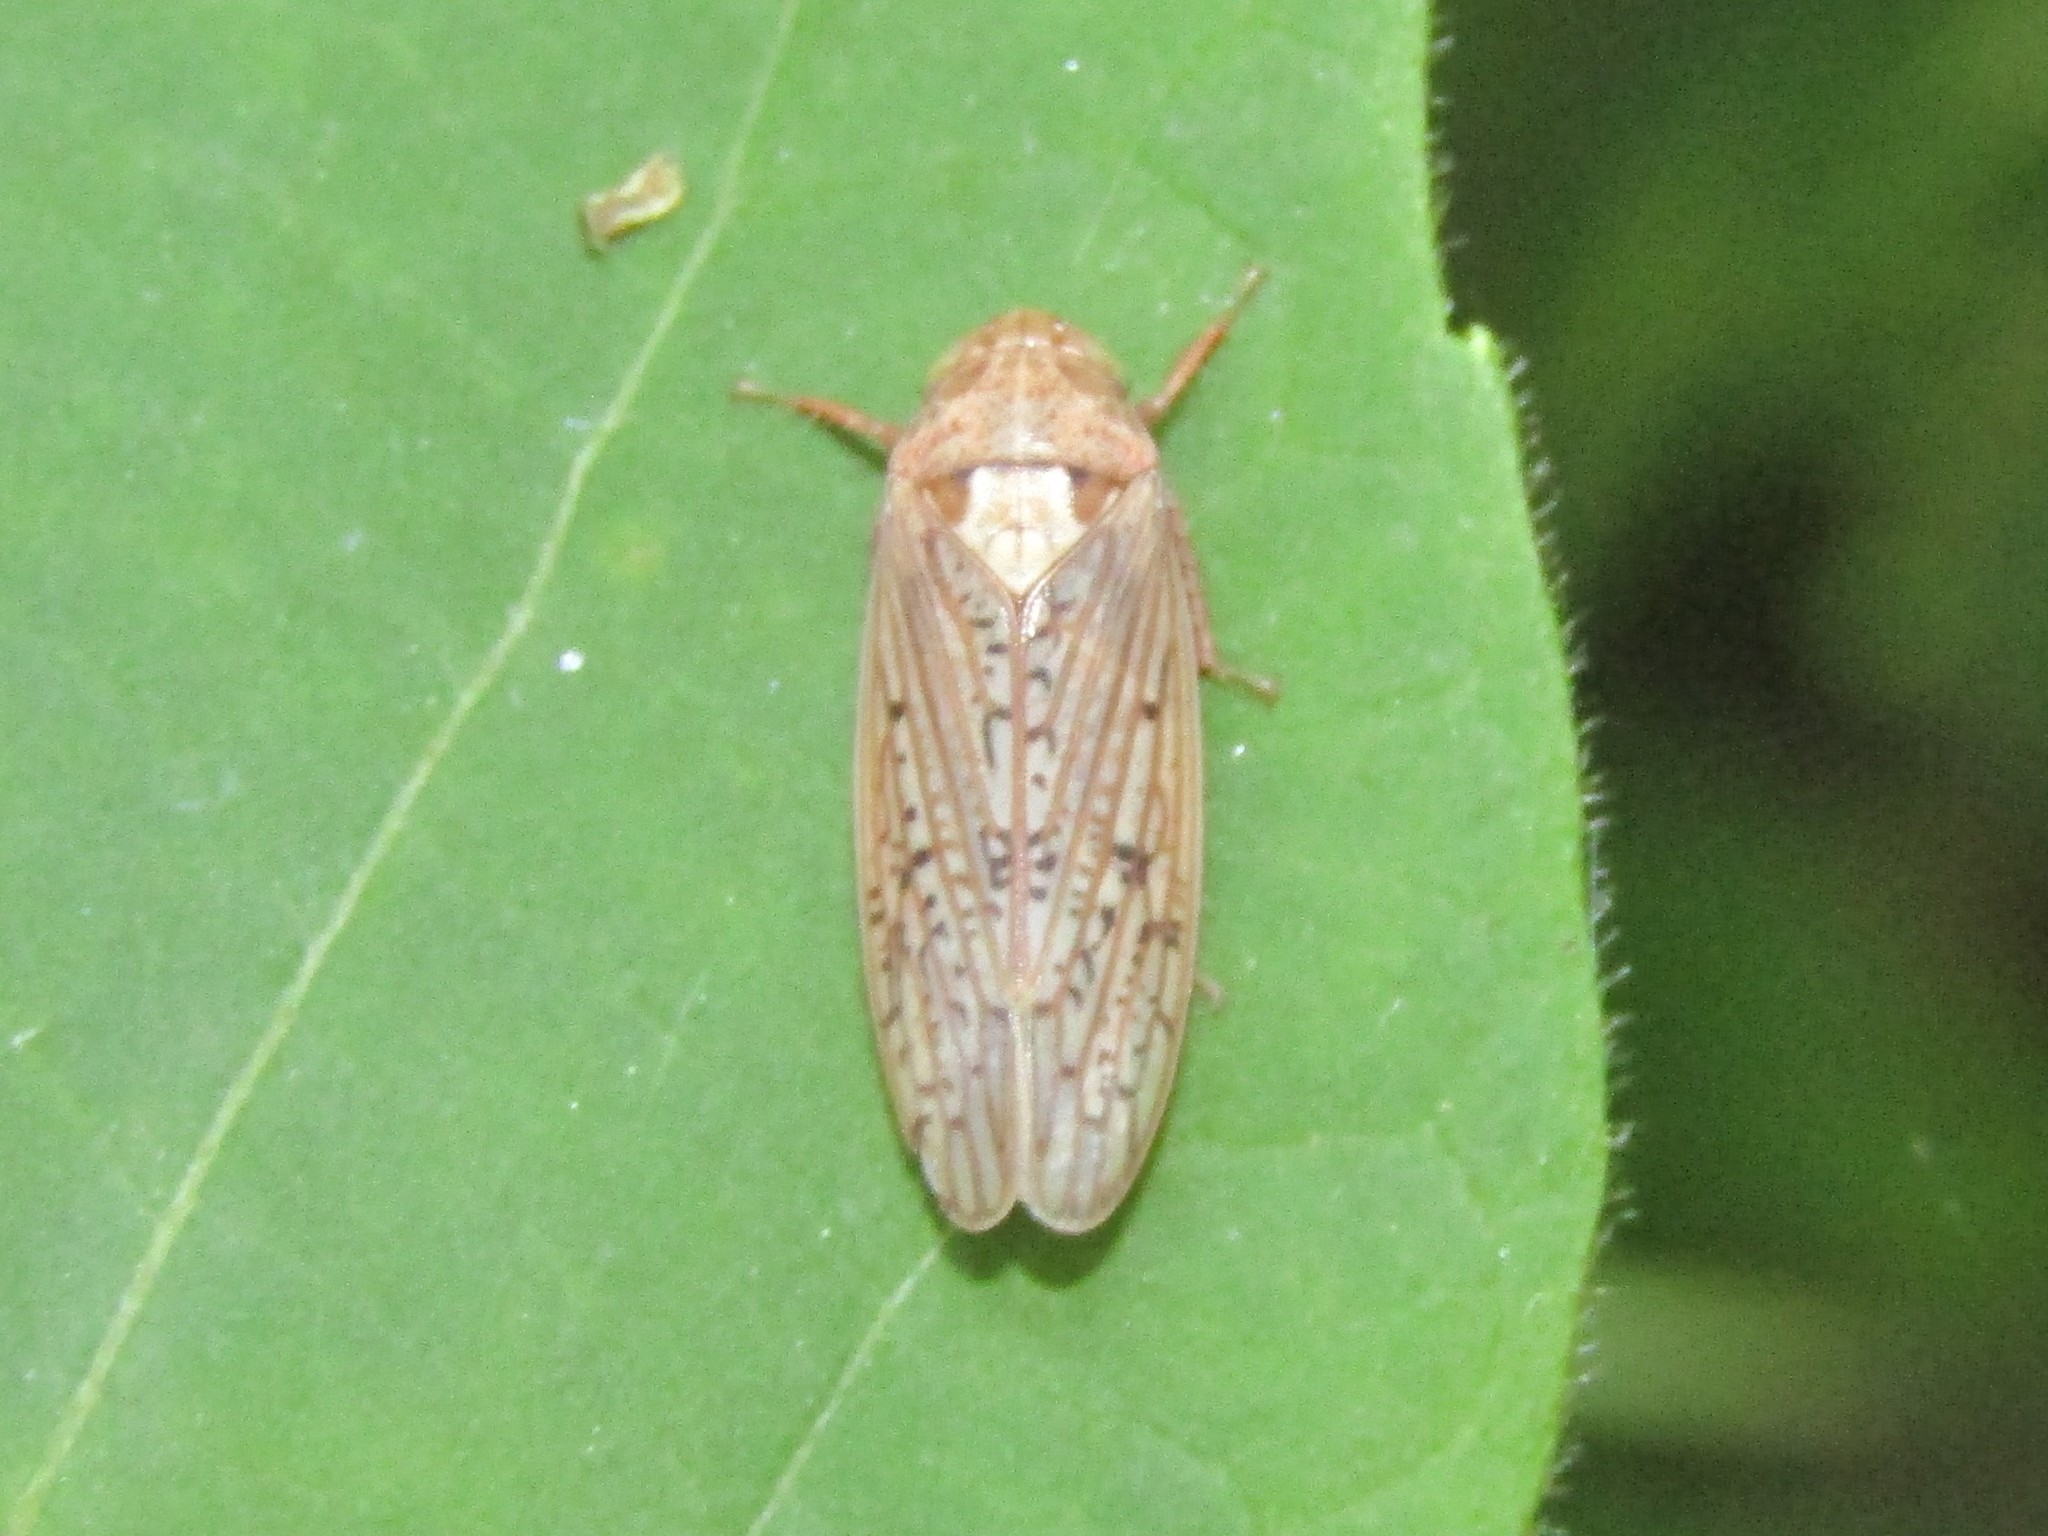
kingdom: Animalia
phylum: Arthropoda
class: Insecta
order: Hemiptera
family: Cicadellidae
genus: Ponana
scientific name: Ponana rubida
